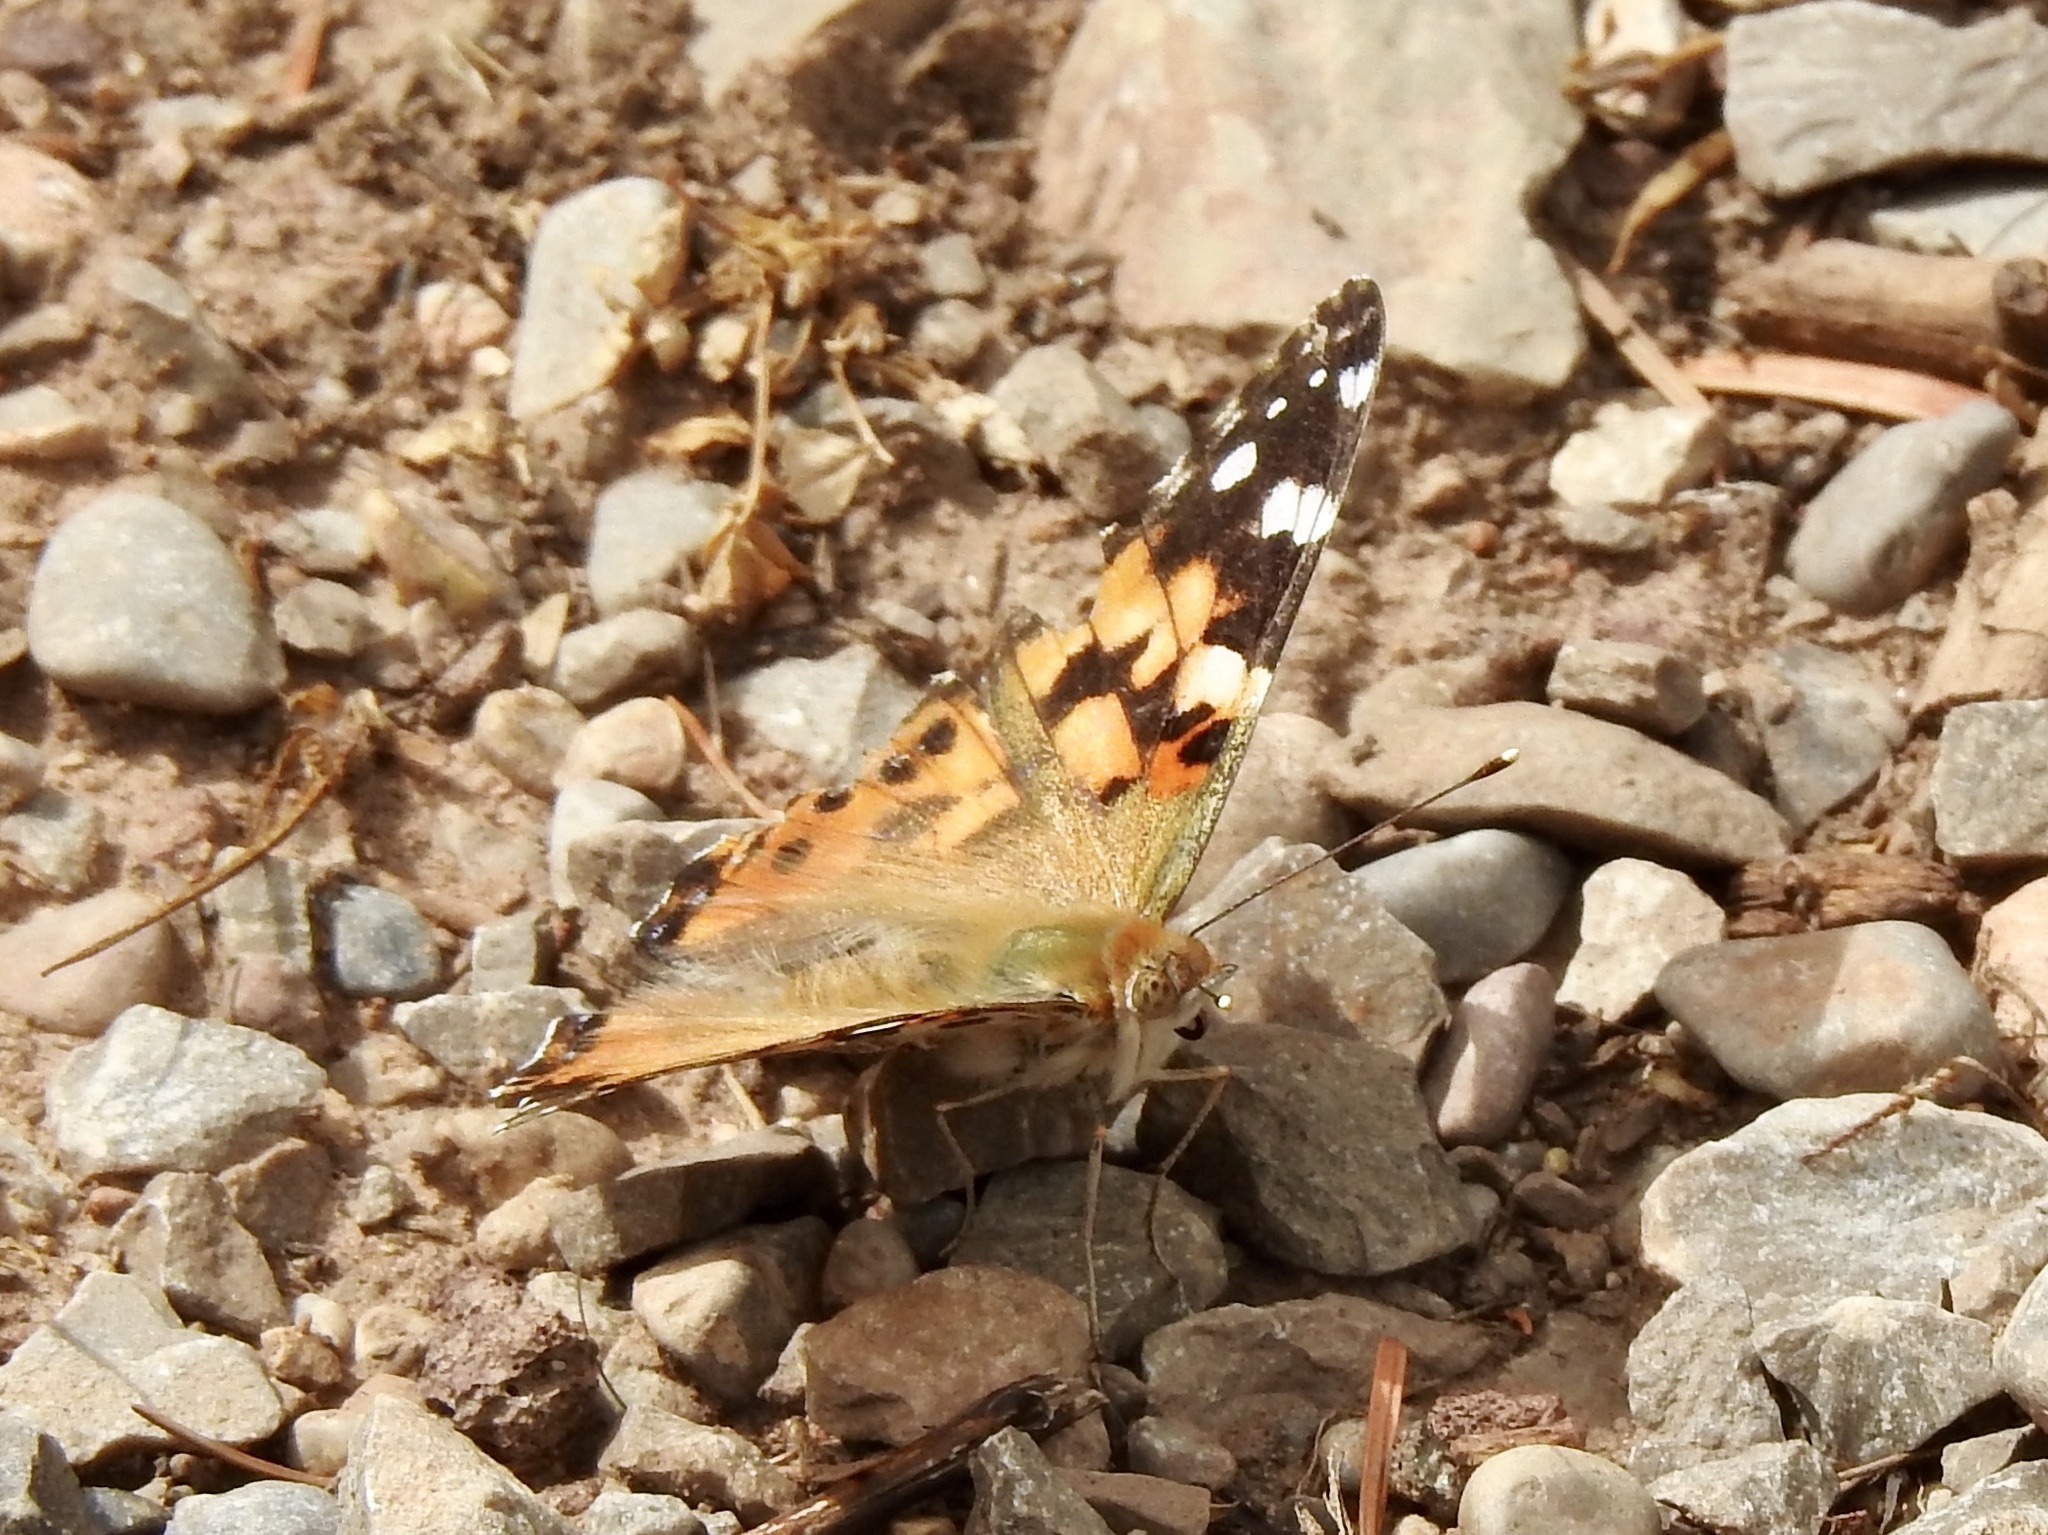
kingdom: Animalia
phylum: Arthropoda
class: Insecta
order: Lepidoptera
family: Nymphalidae
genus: Vanessa
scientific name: Vanessa cardui
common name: Painted lady
